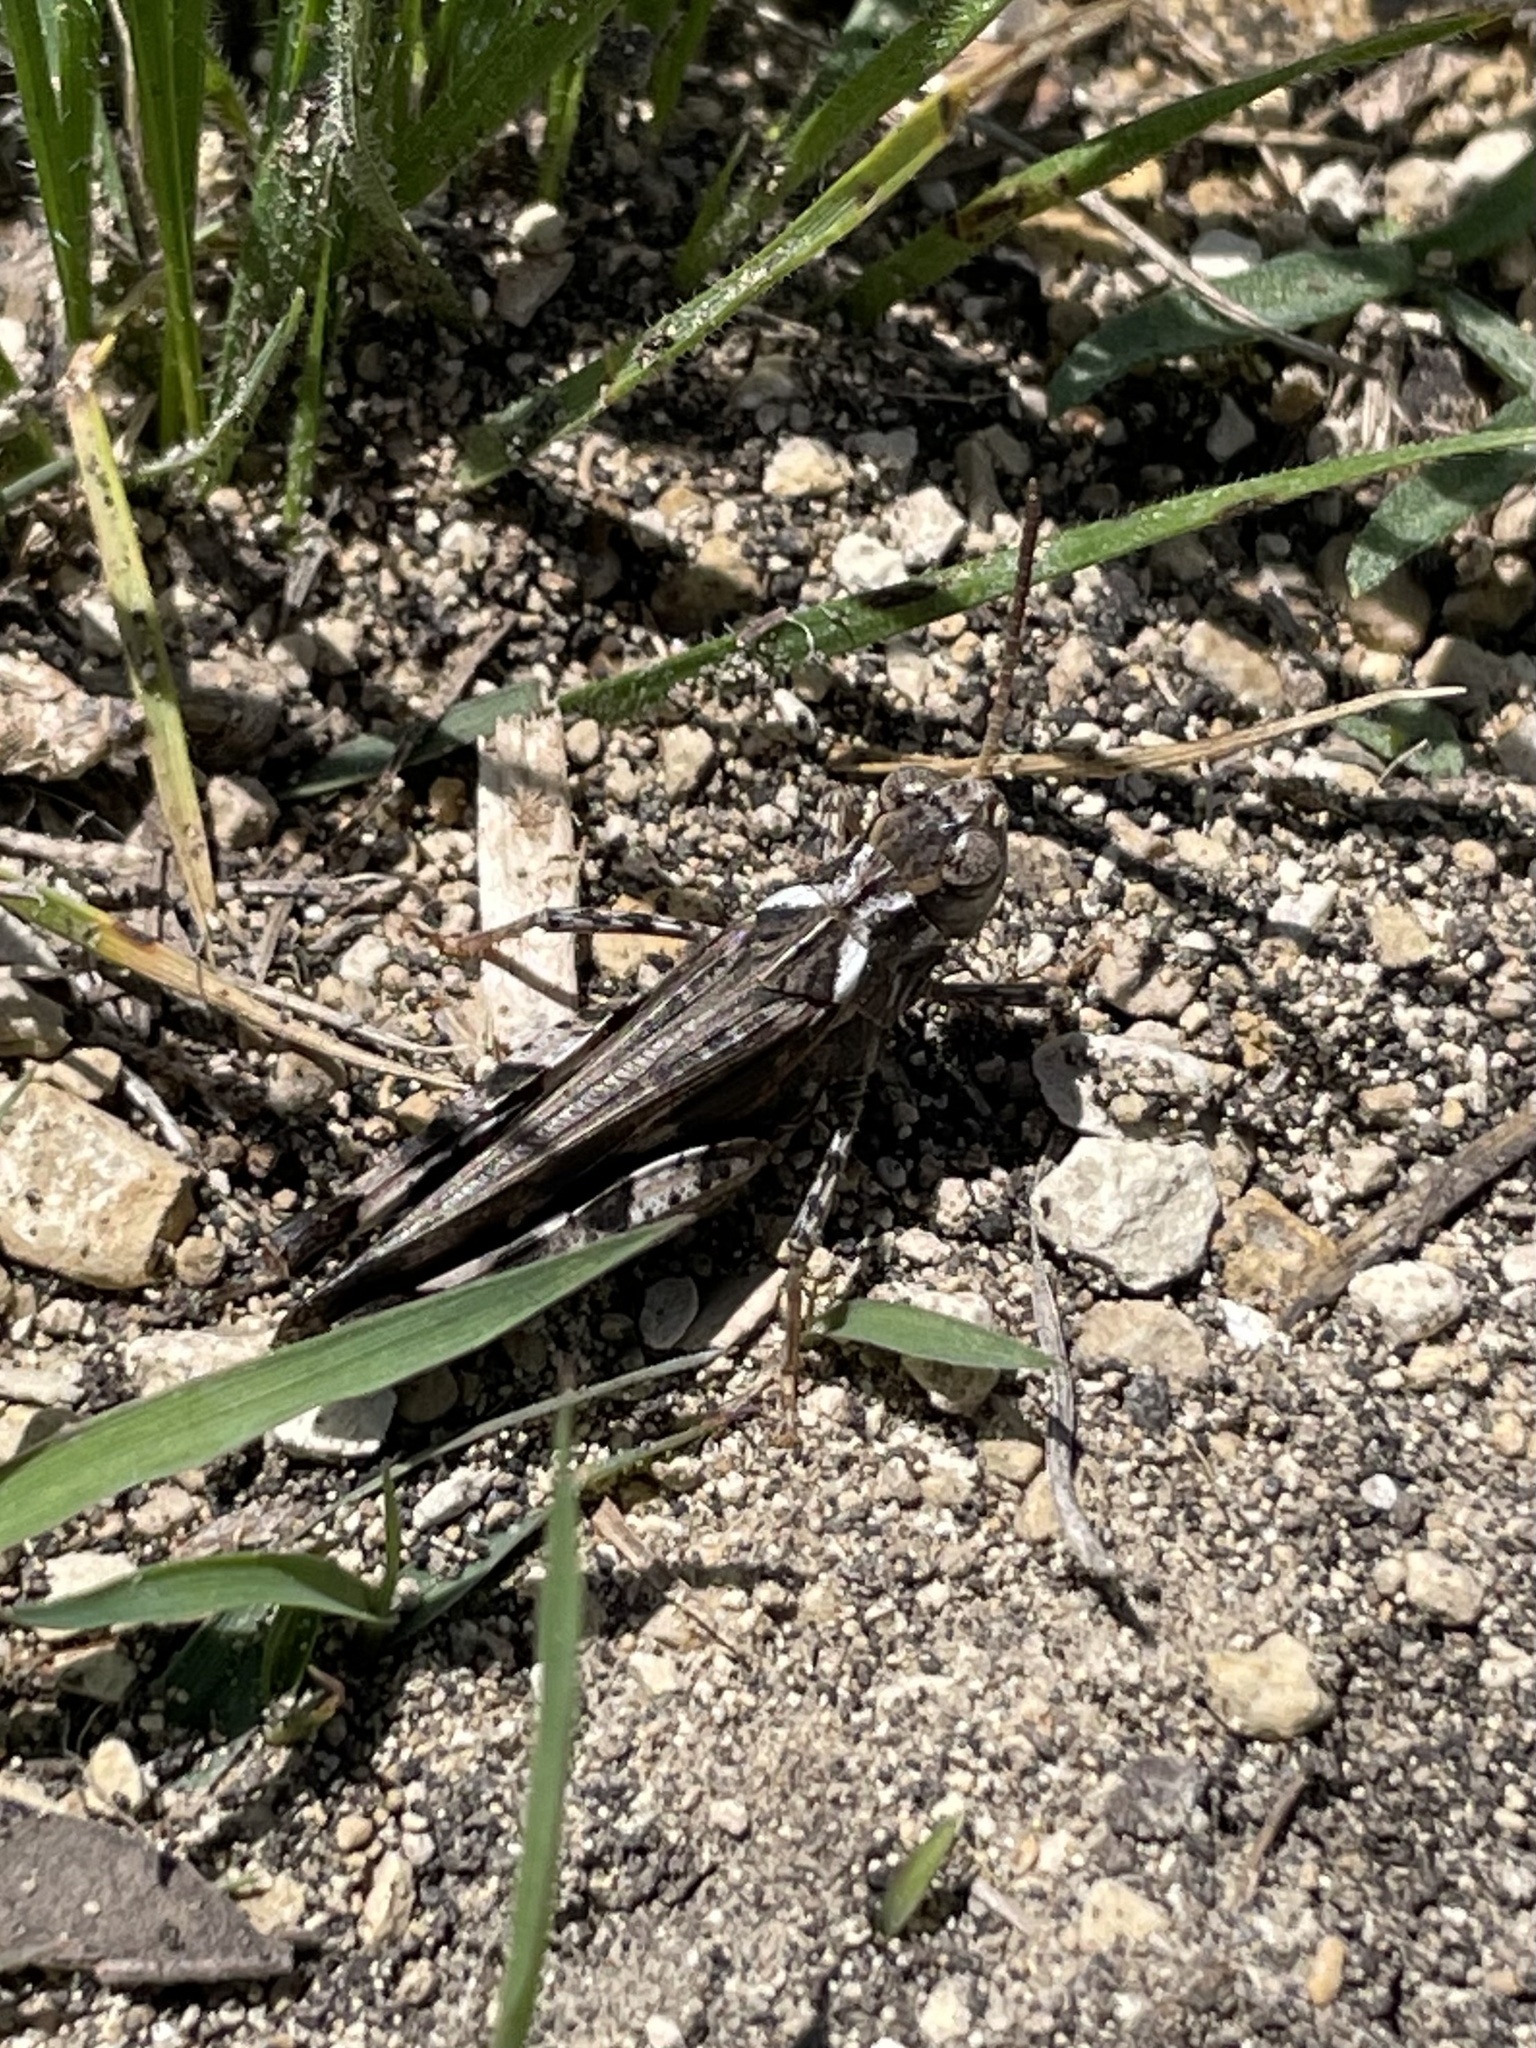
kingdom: Animalia
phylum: Arthropoda
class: Insecta
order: Orthoptera
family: Acrididae
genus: Encoptolophus
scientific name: Encoptolophus costalis
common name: Dusky grasshopper
